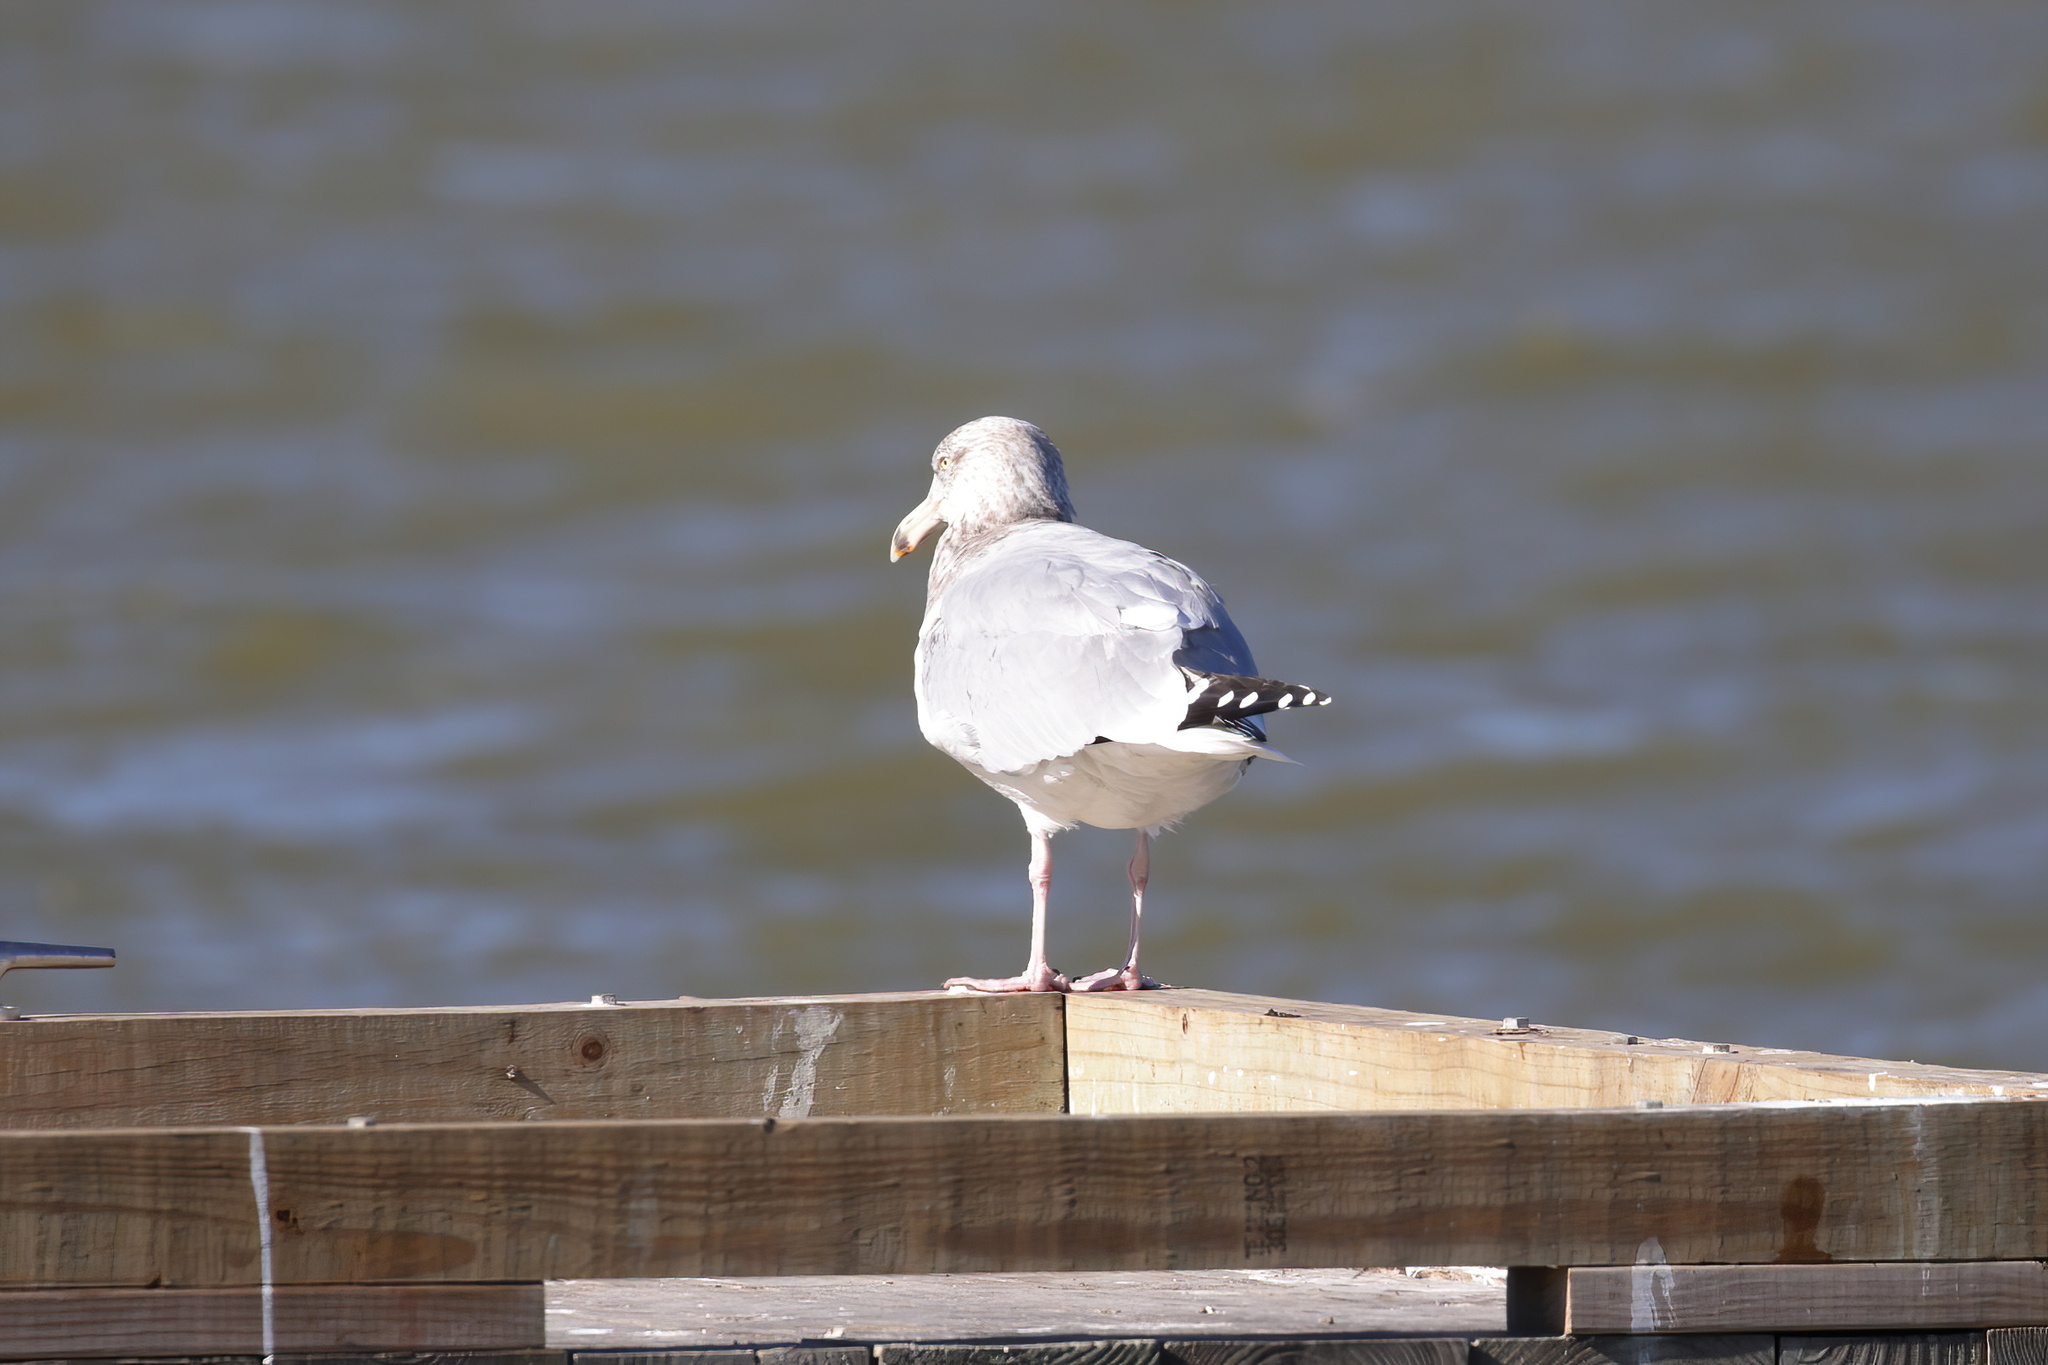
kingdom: Animalia
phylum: Chordata
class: Aves
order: Charadriiformes
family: Laridae
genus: Larus
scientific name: Larus argentatus
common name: Herring gull
